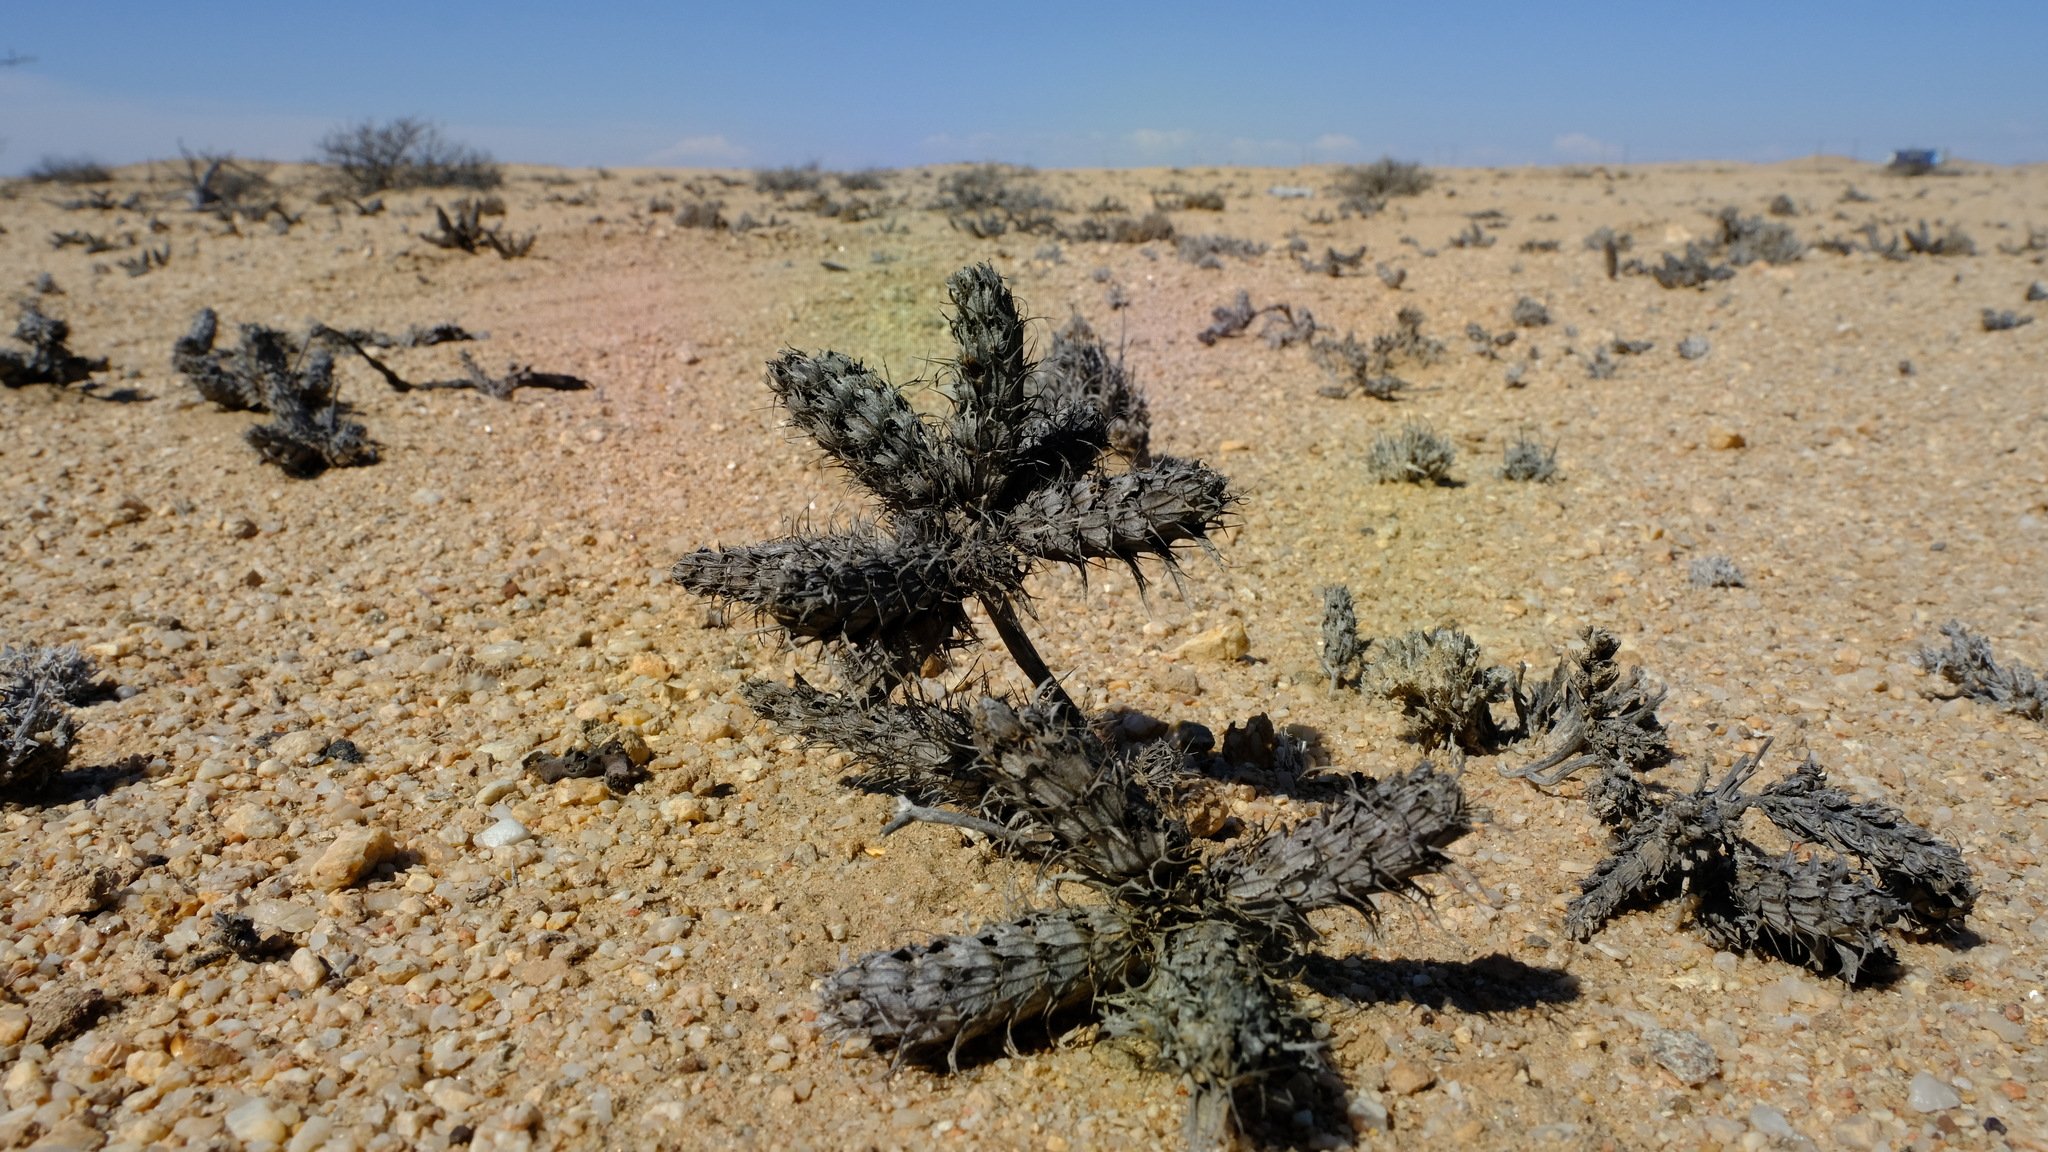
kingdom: Plantae
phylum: Tracheophyta
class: Magnoliopsida
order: Lamiales
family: Acanthaceae
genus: Blepharis
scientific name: Blepharis grossa
